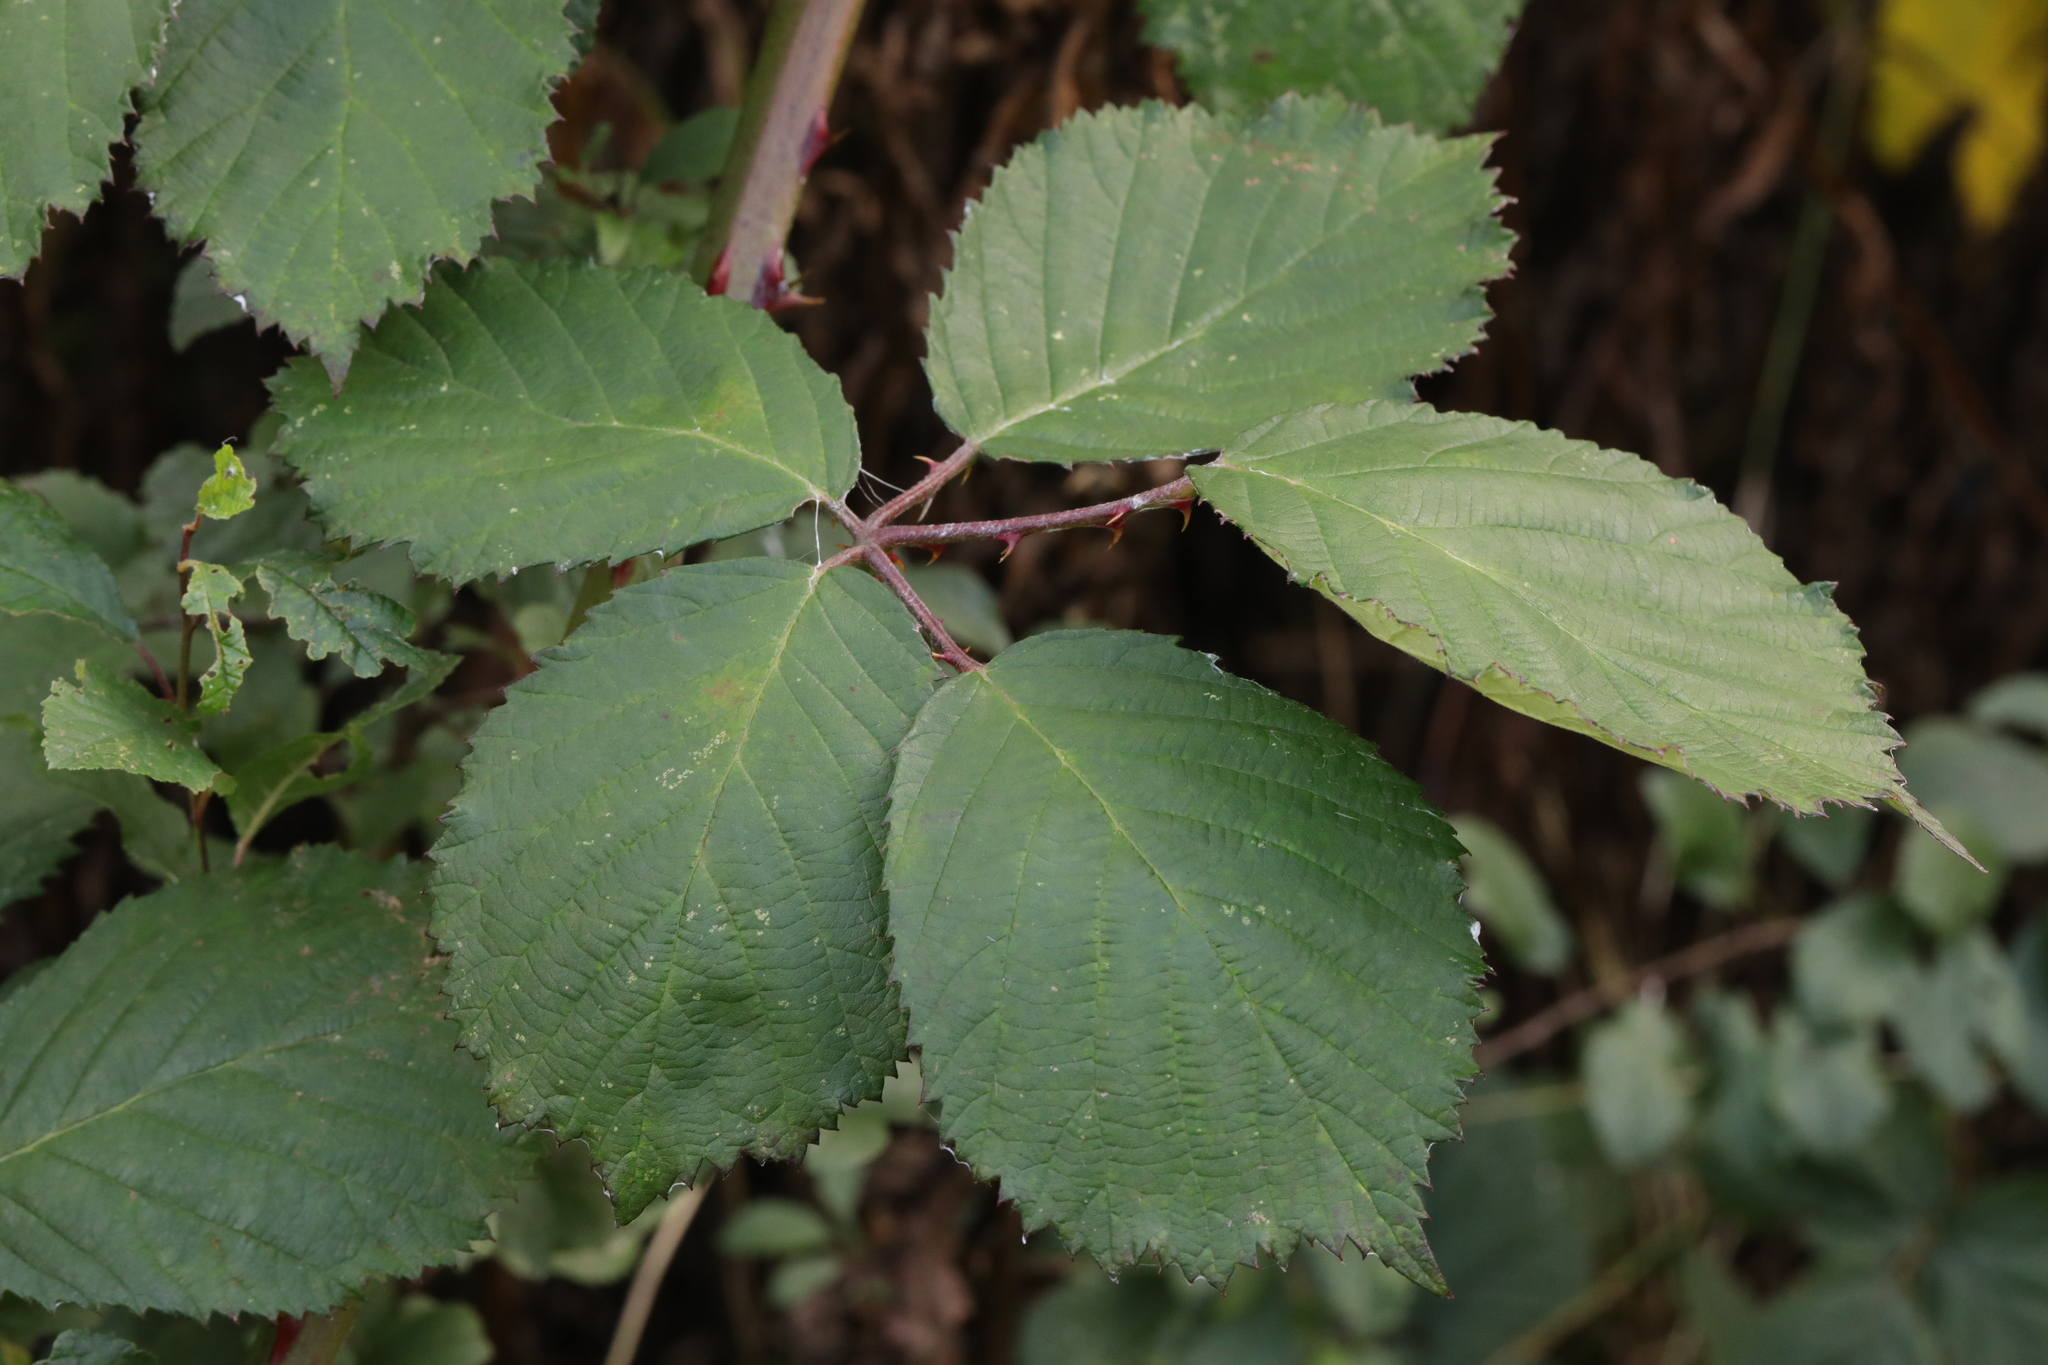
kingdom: Plantae
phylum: Tracheophyta
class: Magnoliopsida
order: Rosales
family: Rosaceae
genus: Rubus
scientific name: Rubus armeniacus
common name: Himalayan blackberry
